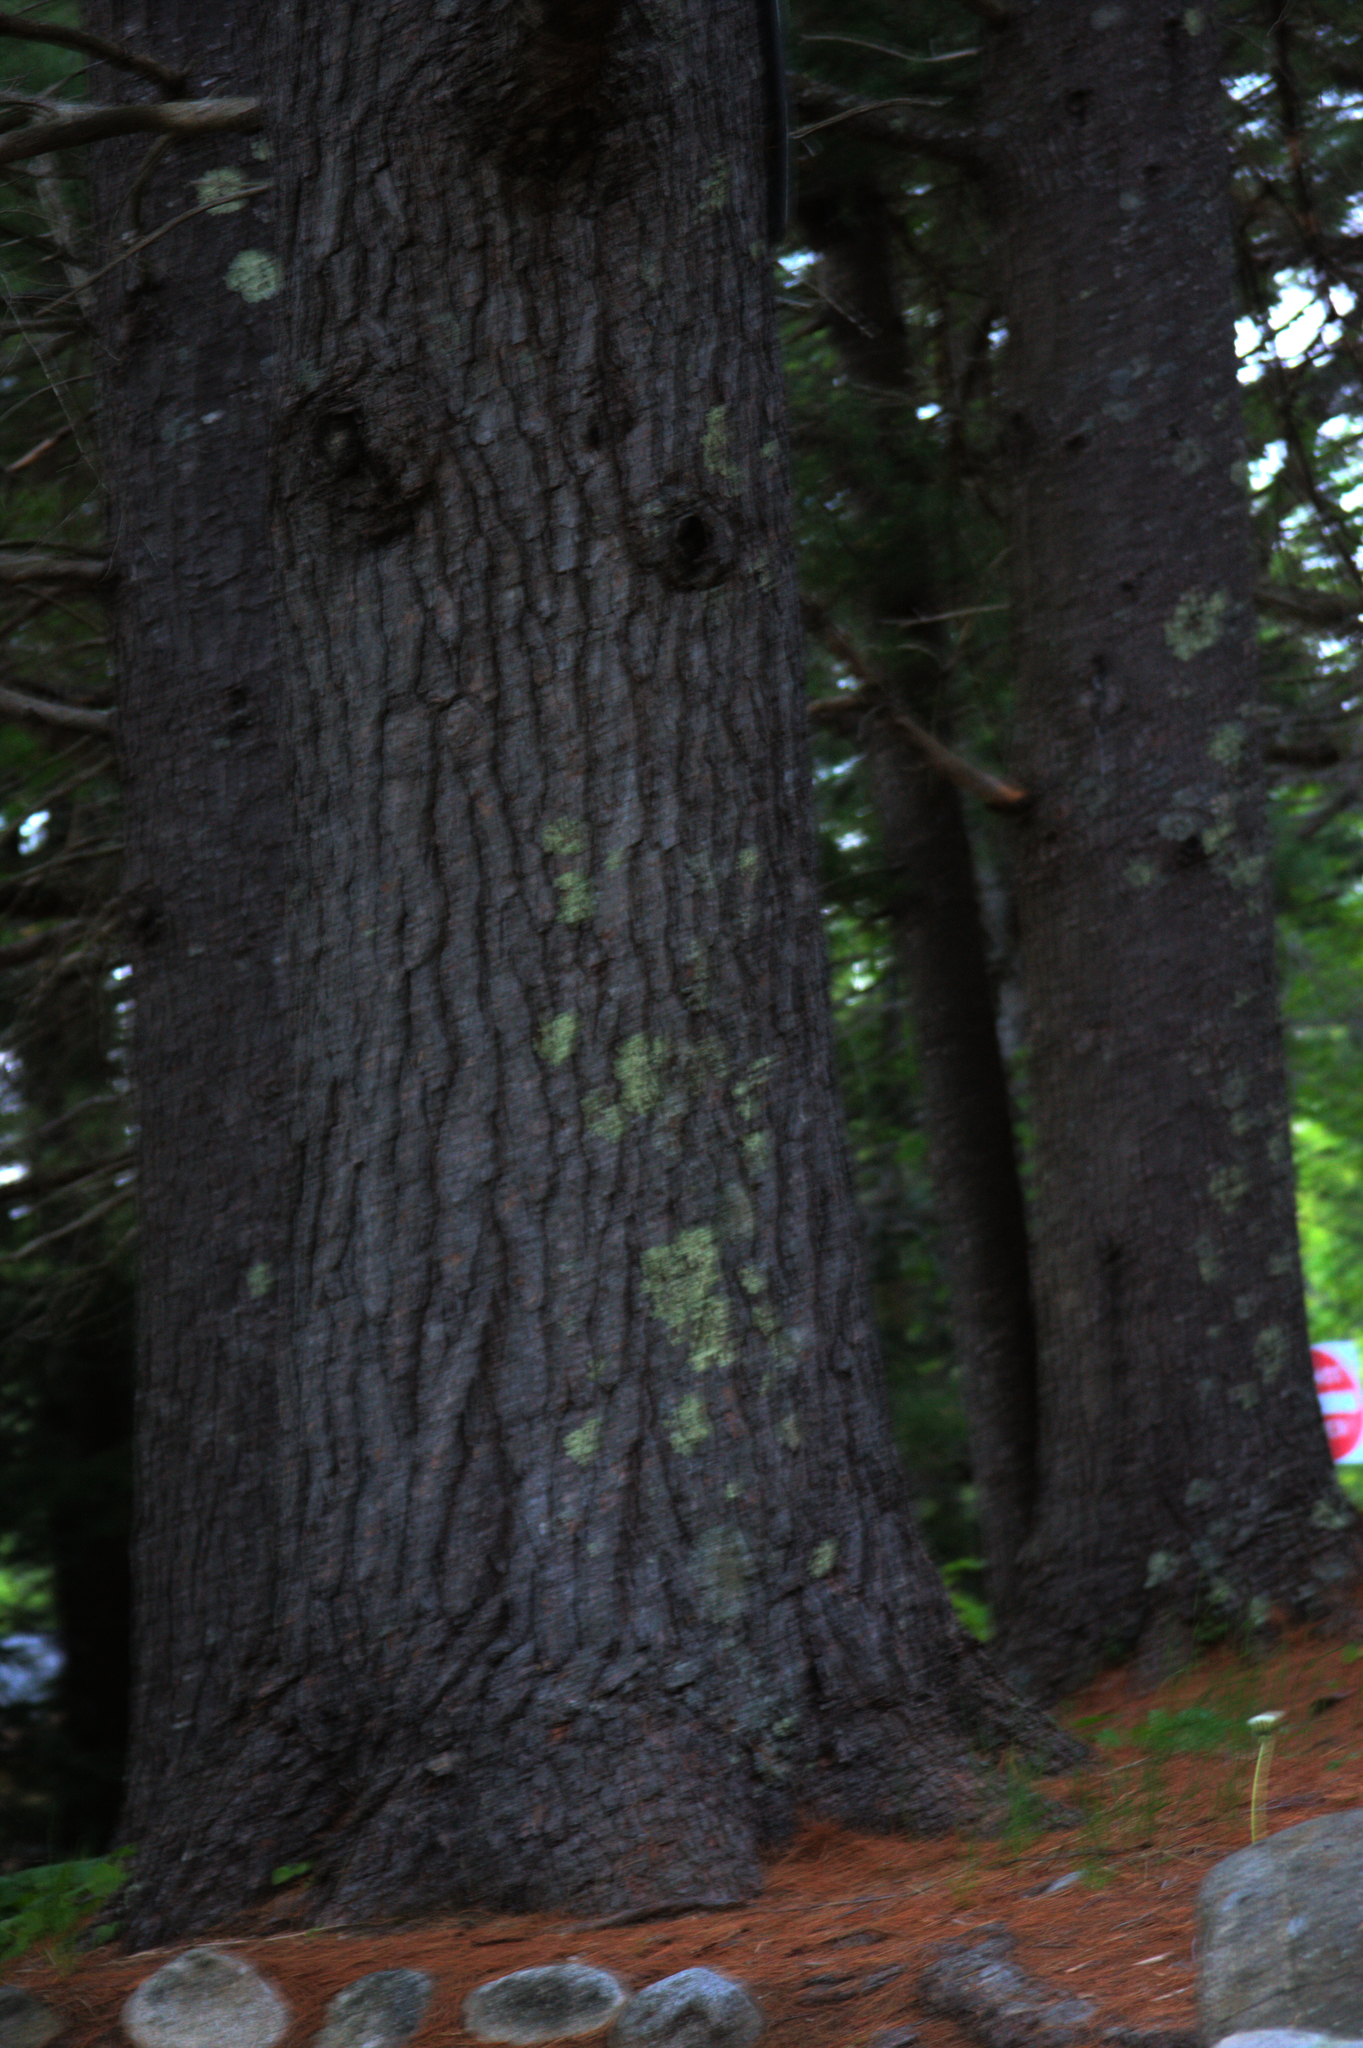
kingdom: Plantae
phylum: Tracheophyta
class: Pinopsida
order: Pinales
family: Pinaceae
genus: Pinus
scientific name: Pinus strobus
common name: Weymouth pine
